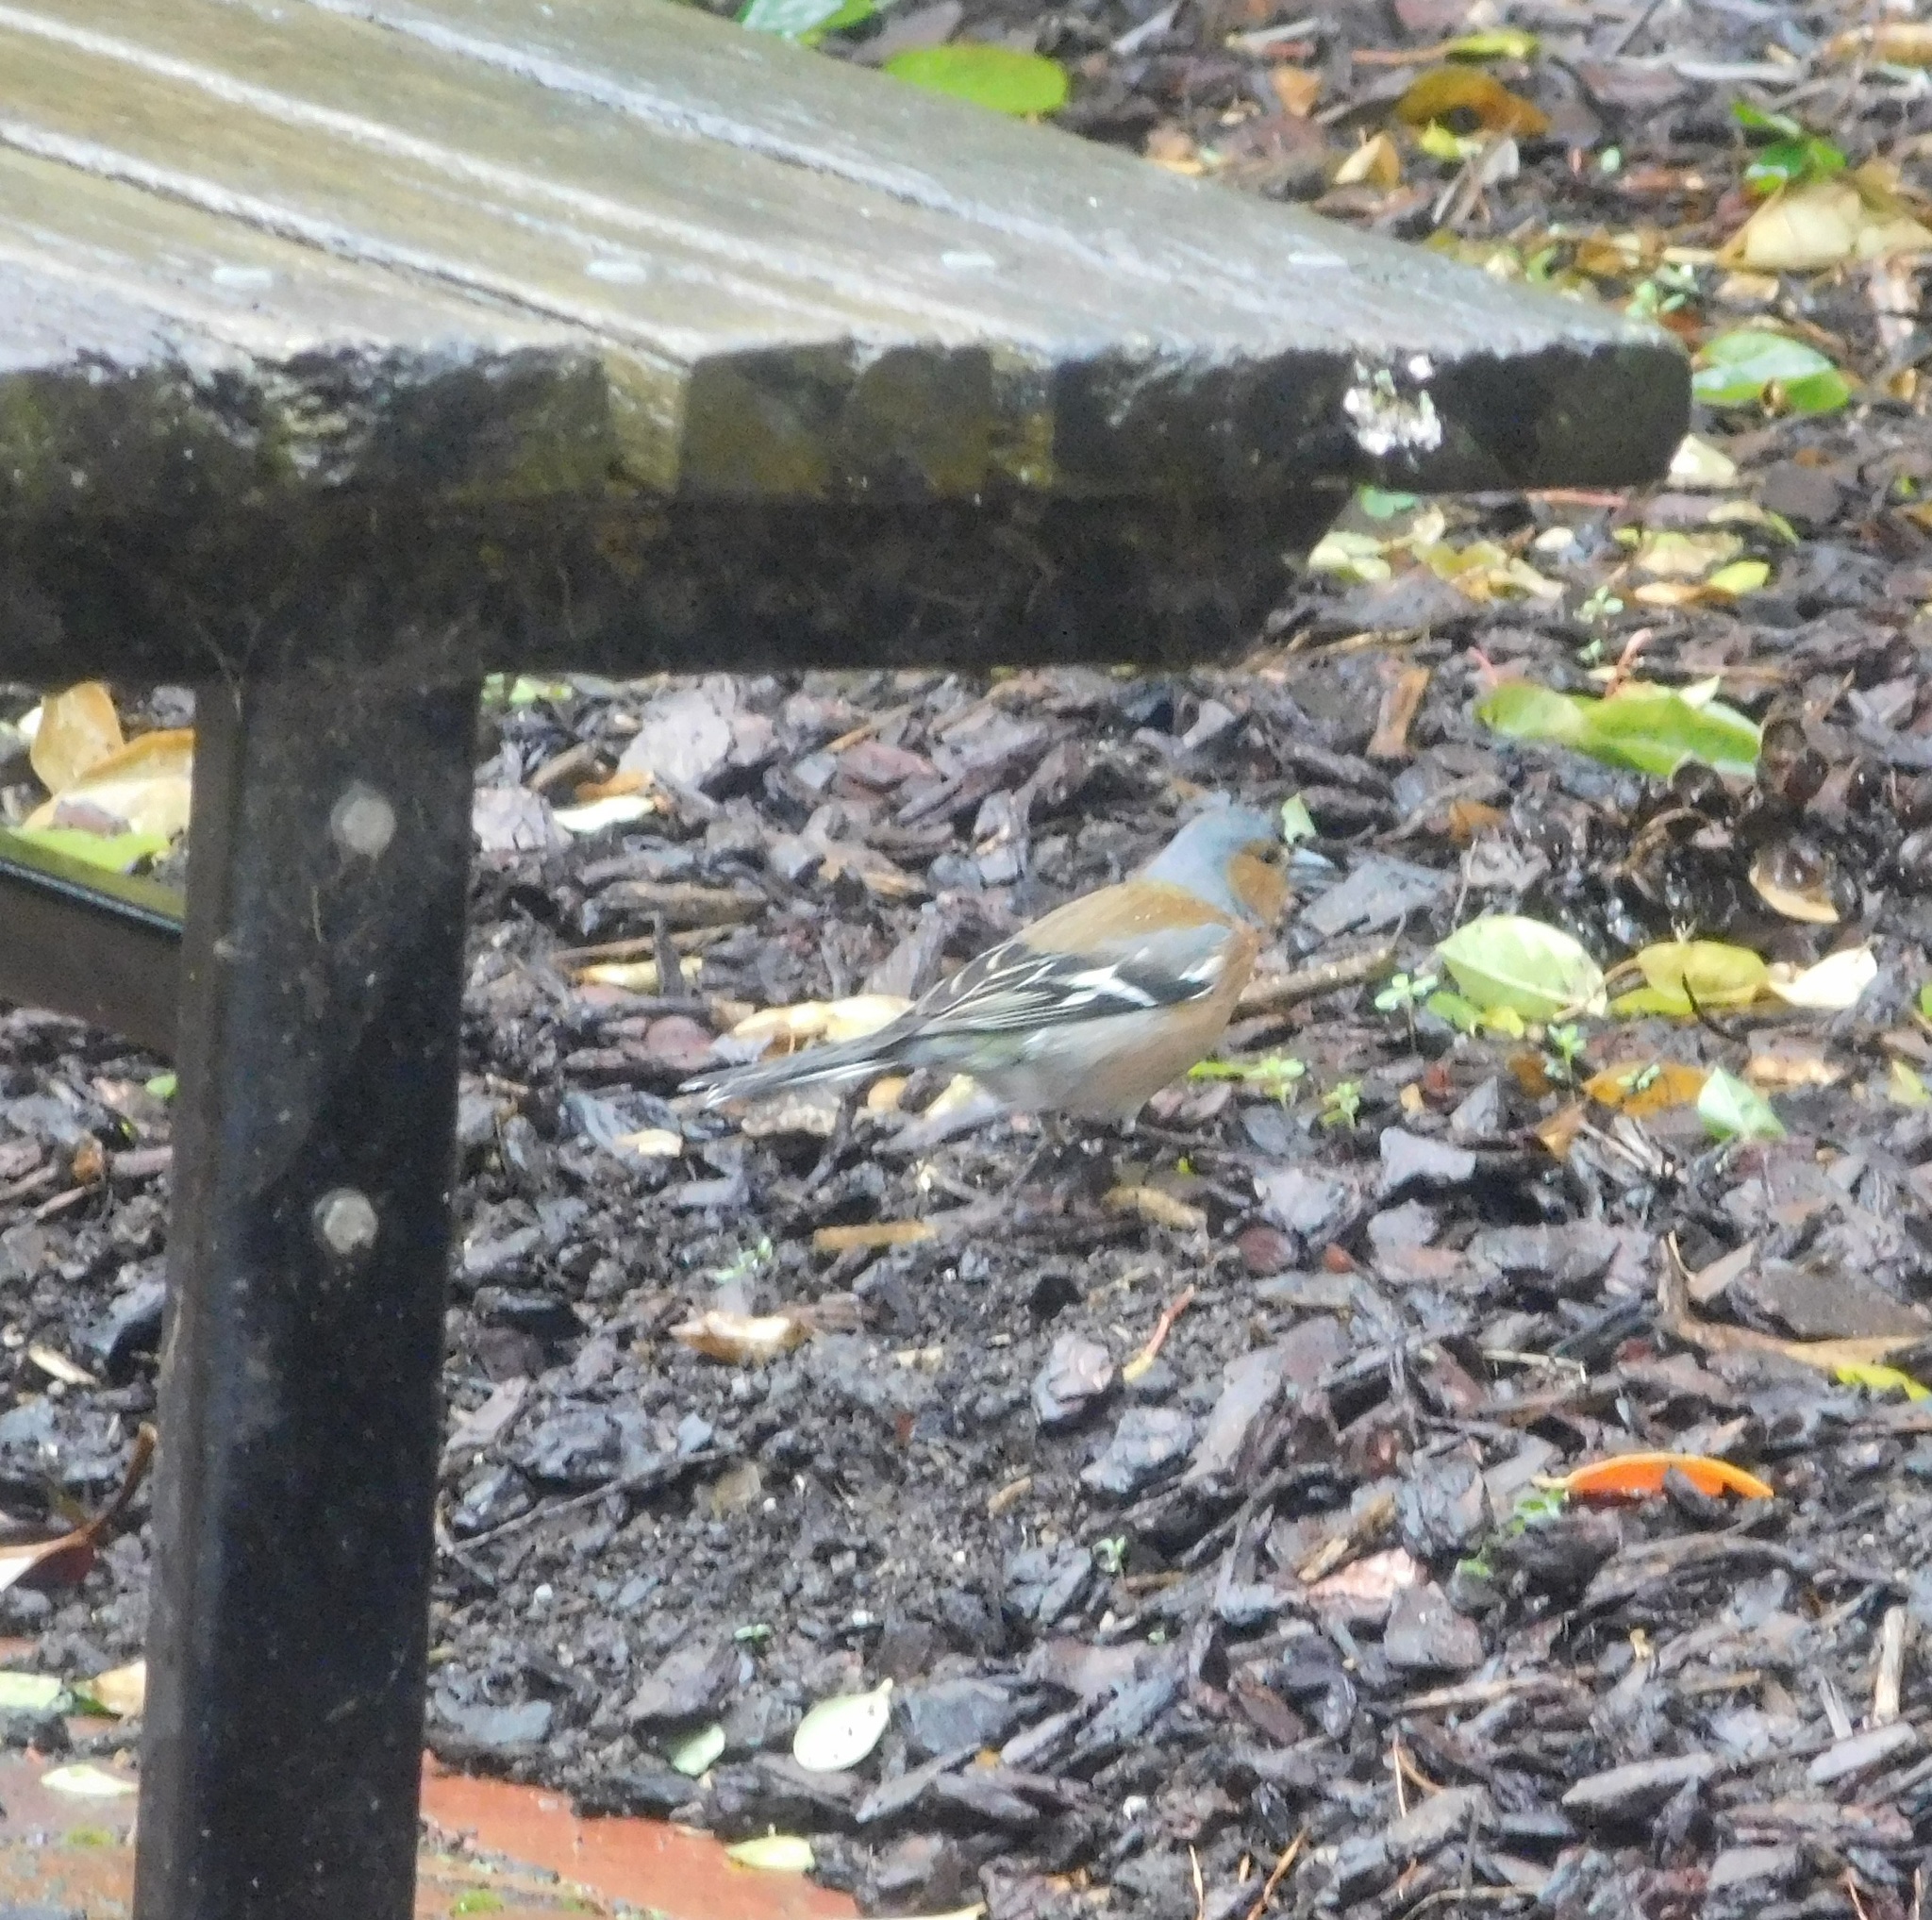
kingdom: Animalia
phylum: Chordata
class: Aves
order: Passeriformes
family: Fringillidae
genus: Fringilla
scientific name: Fringilla coelebs
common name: Common chaffinch
